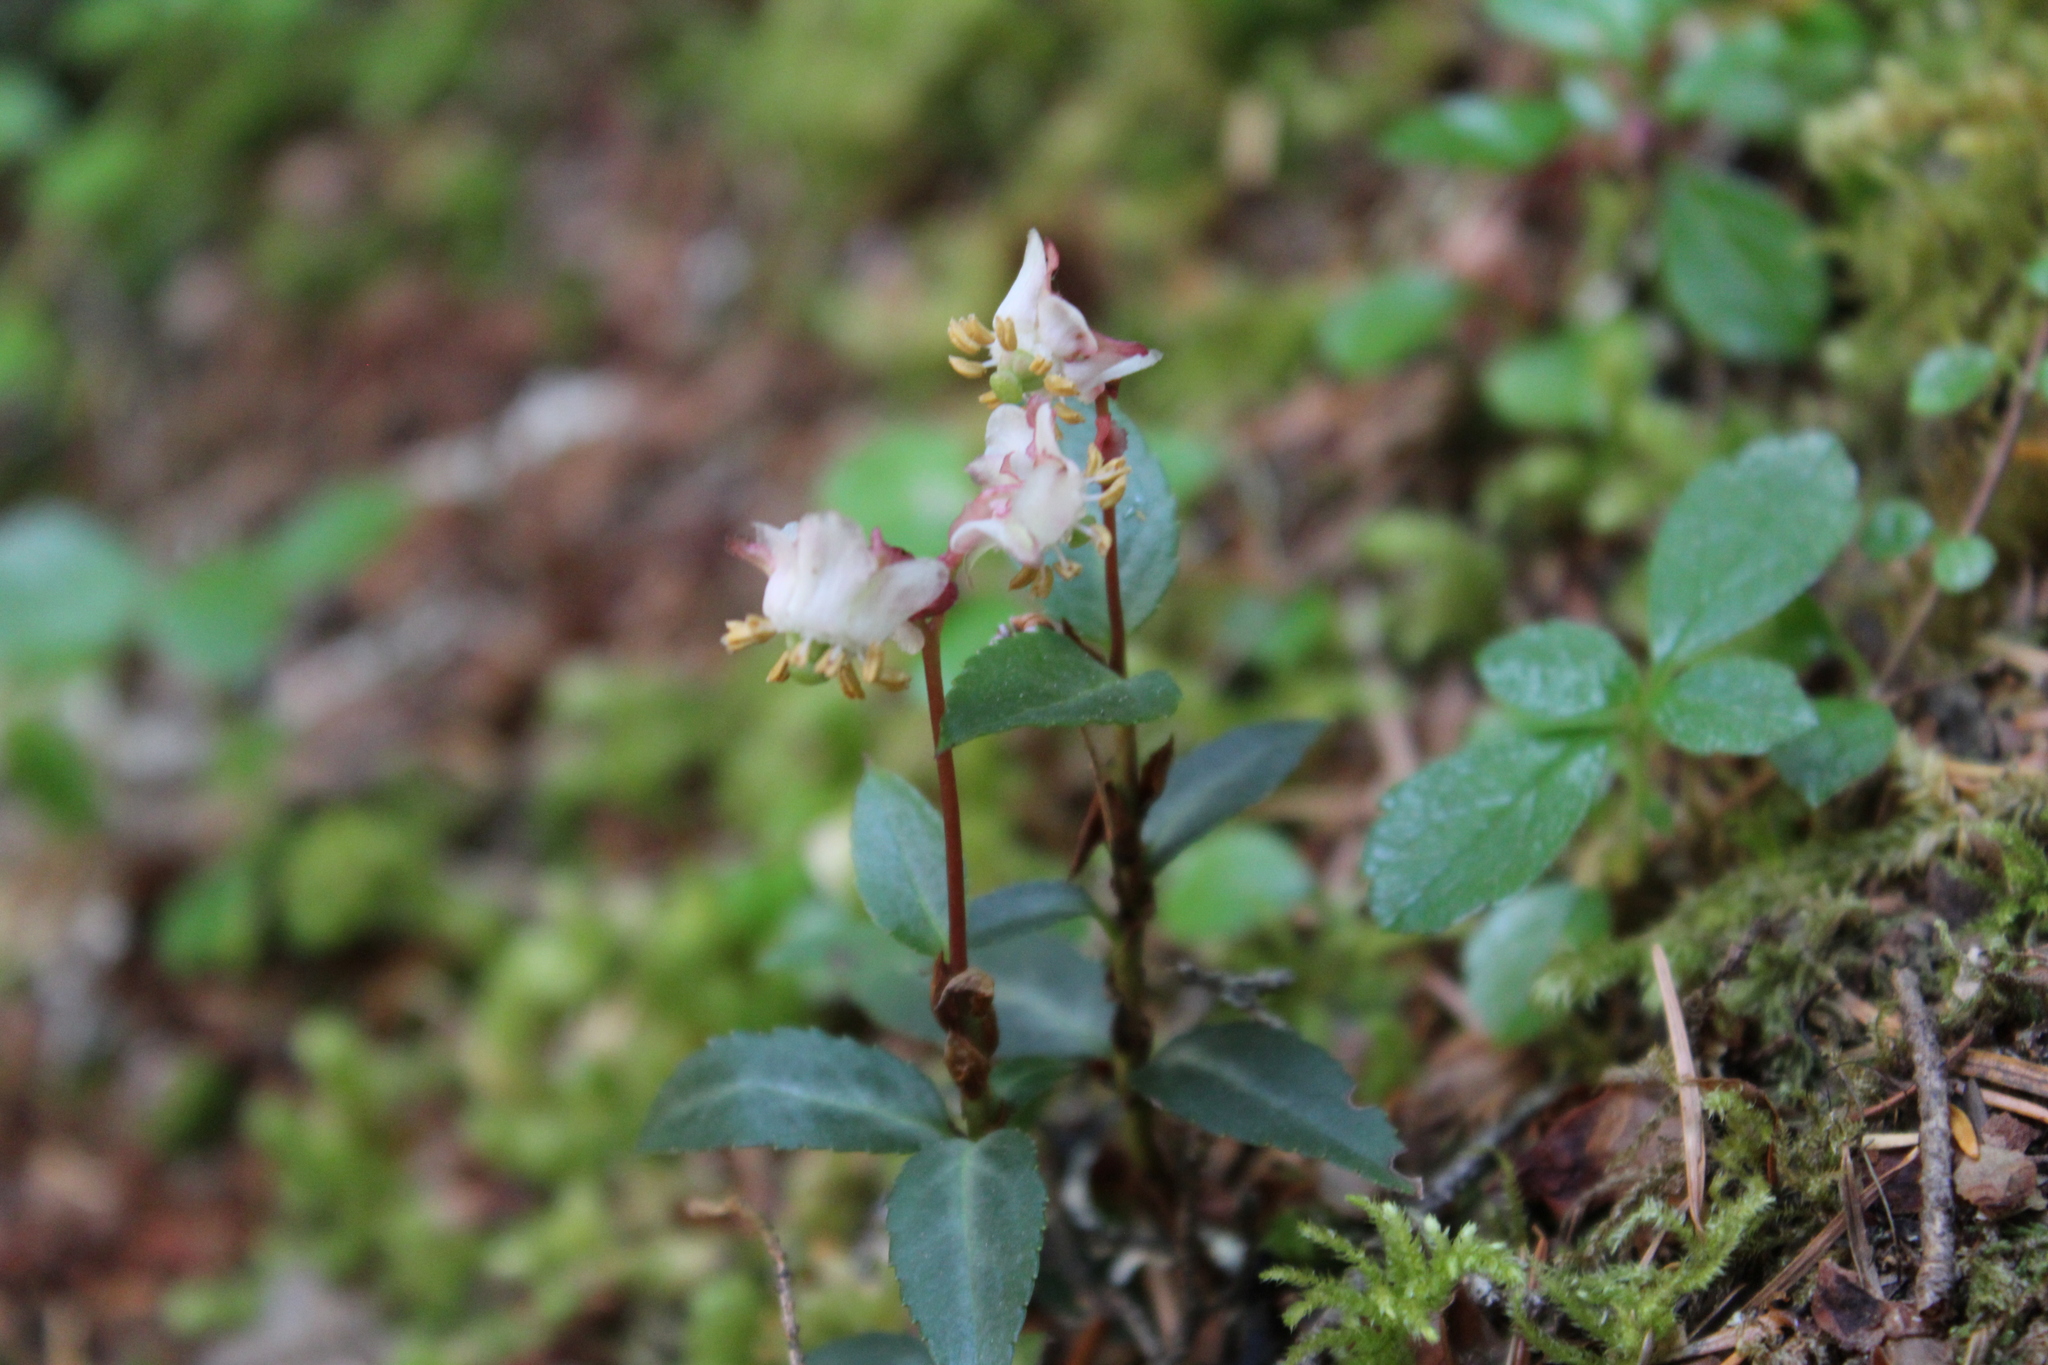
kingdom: Plantae
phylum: Tracheophyta
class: Magnoliopsida
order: Ericales
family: Ericaceae
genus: Chimaphila
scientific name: Chimaphila menziesii
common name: Menzies' pipsissewa
